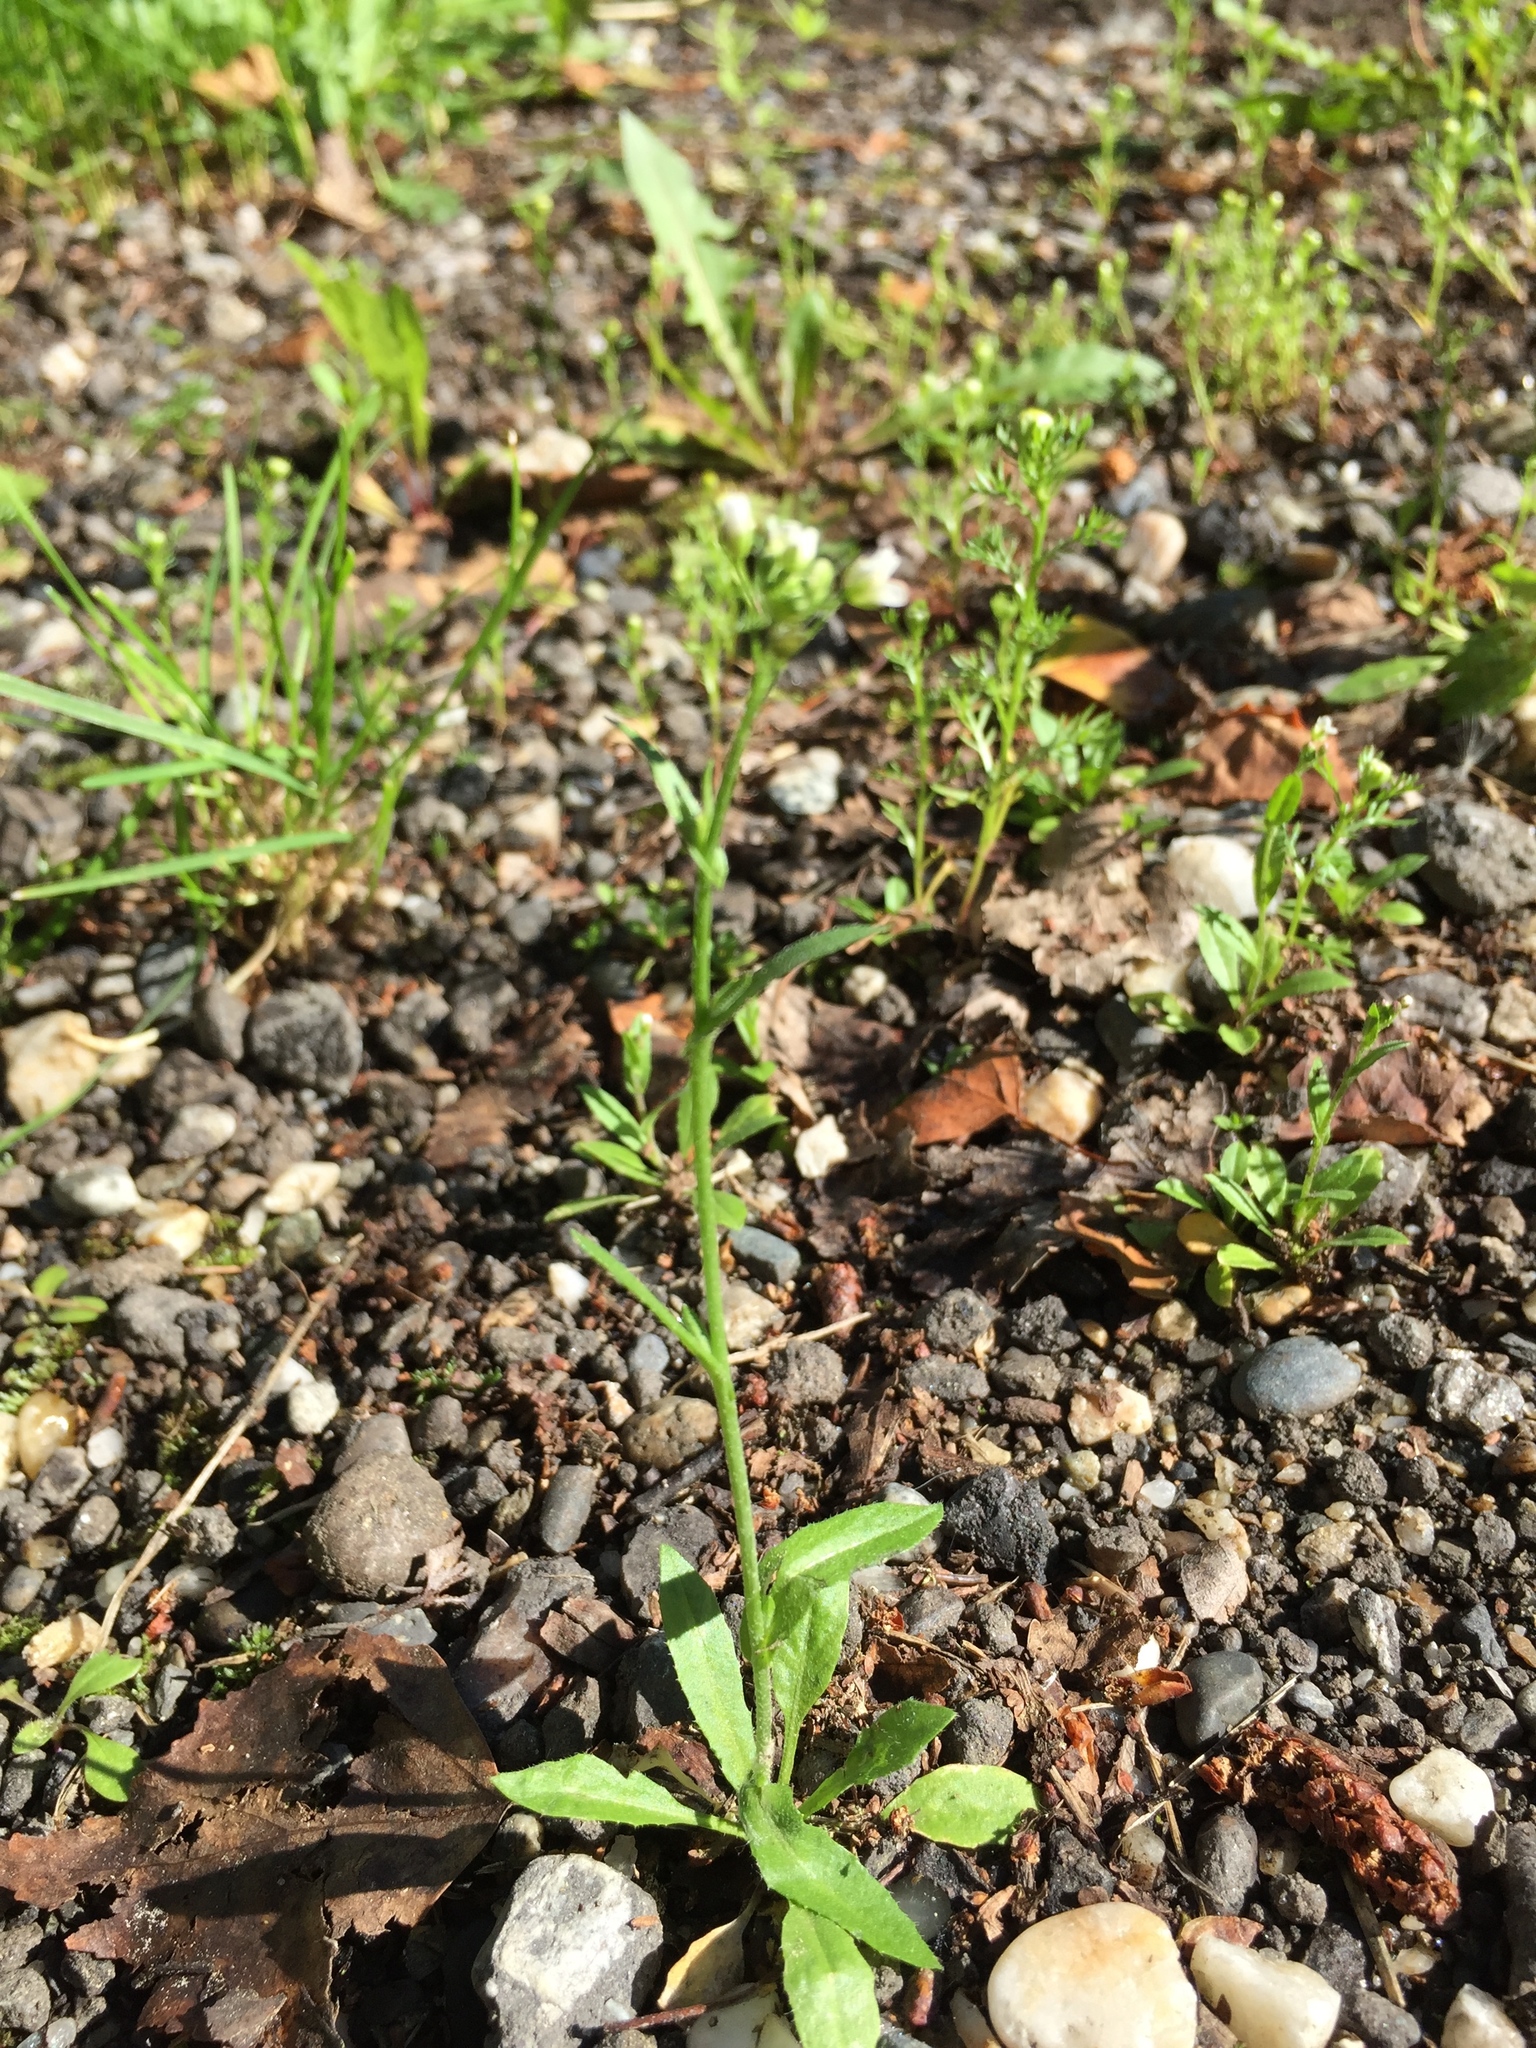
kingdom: Plantae
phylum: Tracheophyta
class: Magnoliopsida
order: Brassicales
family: Brassicaceae
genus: Capsella
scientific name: Capsella bursa-pastoris
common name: Shepherd's purse
